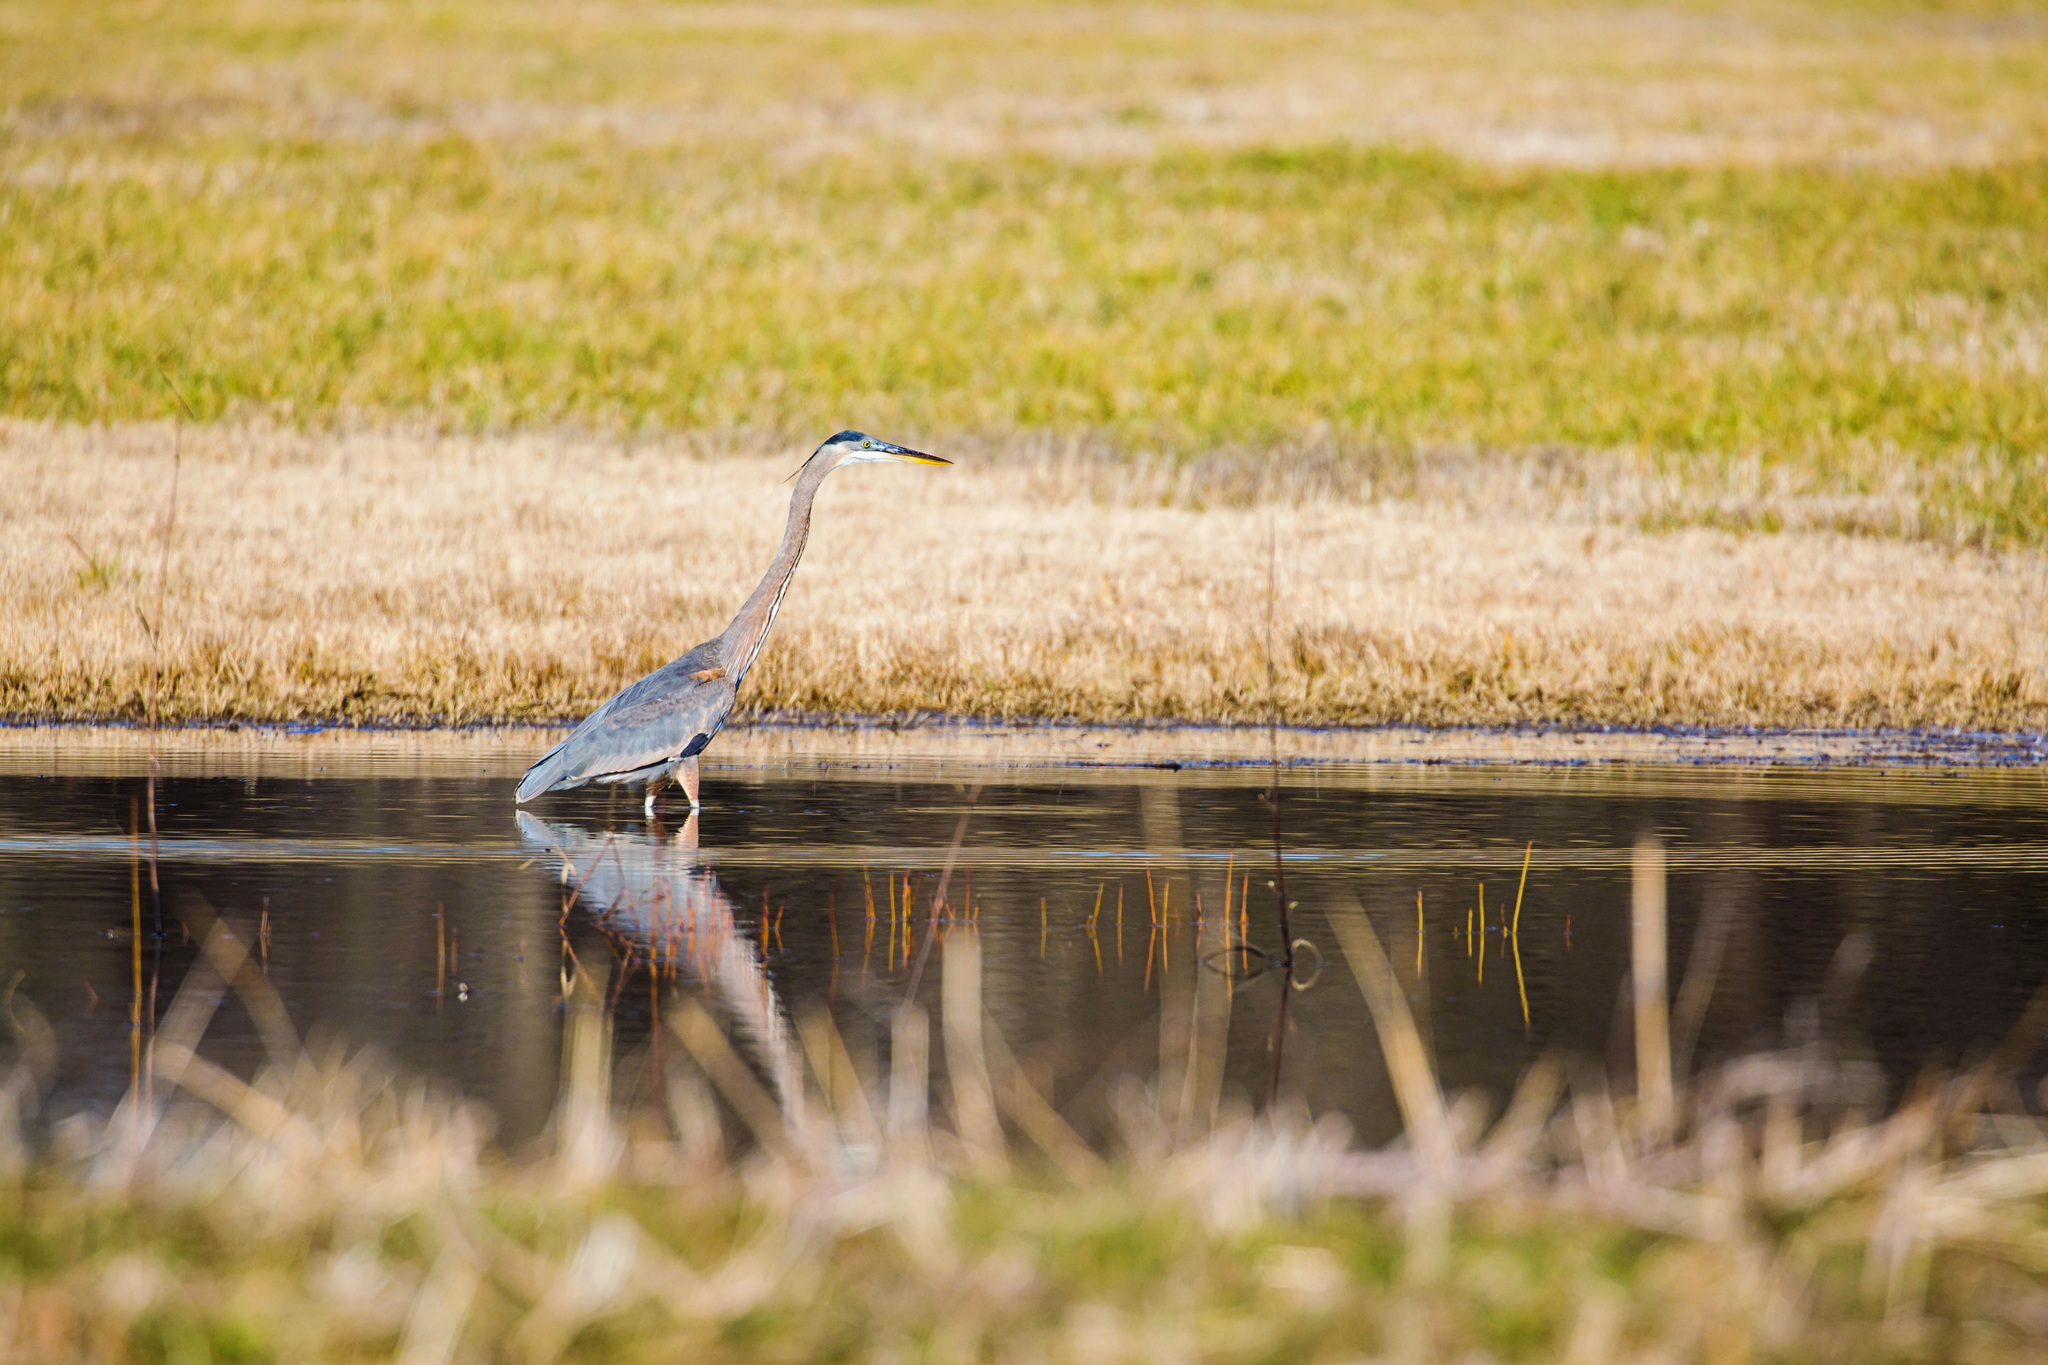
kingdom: Animalia
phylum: Chordata
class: Aves
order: Pelecaniformes
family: Ardeidae
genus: Ardea
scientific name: Ardea herodias
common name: Great blue heron
